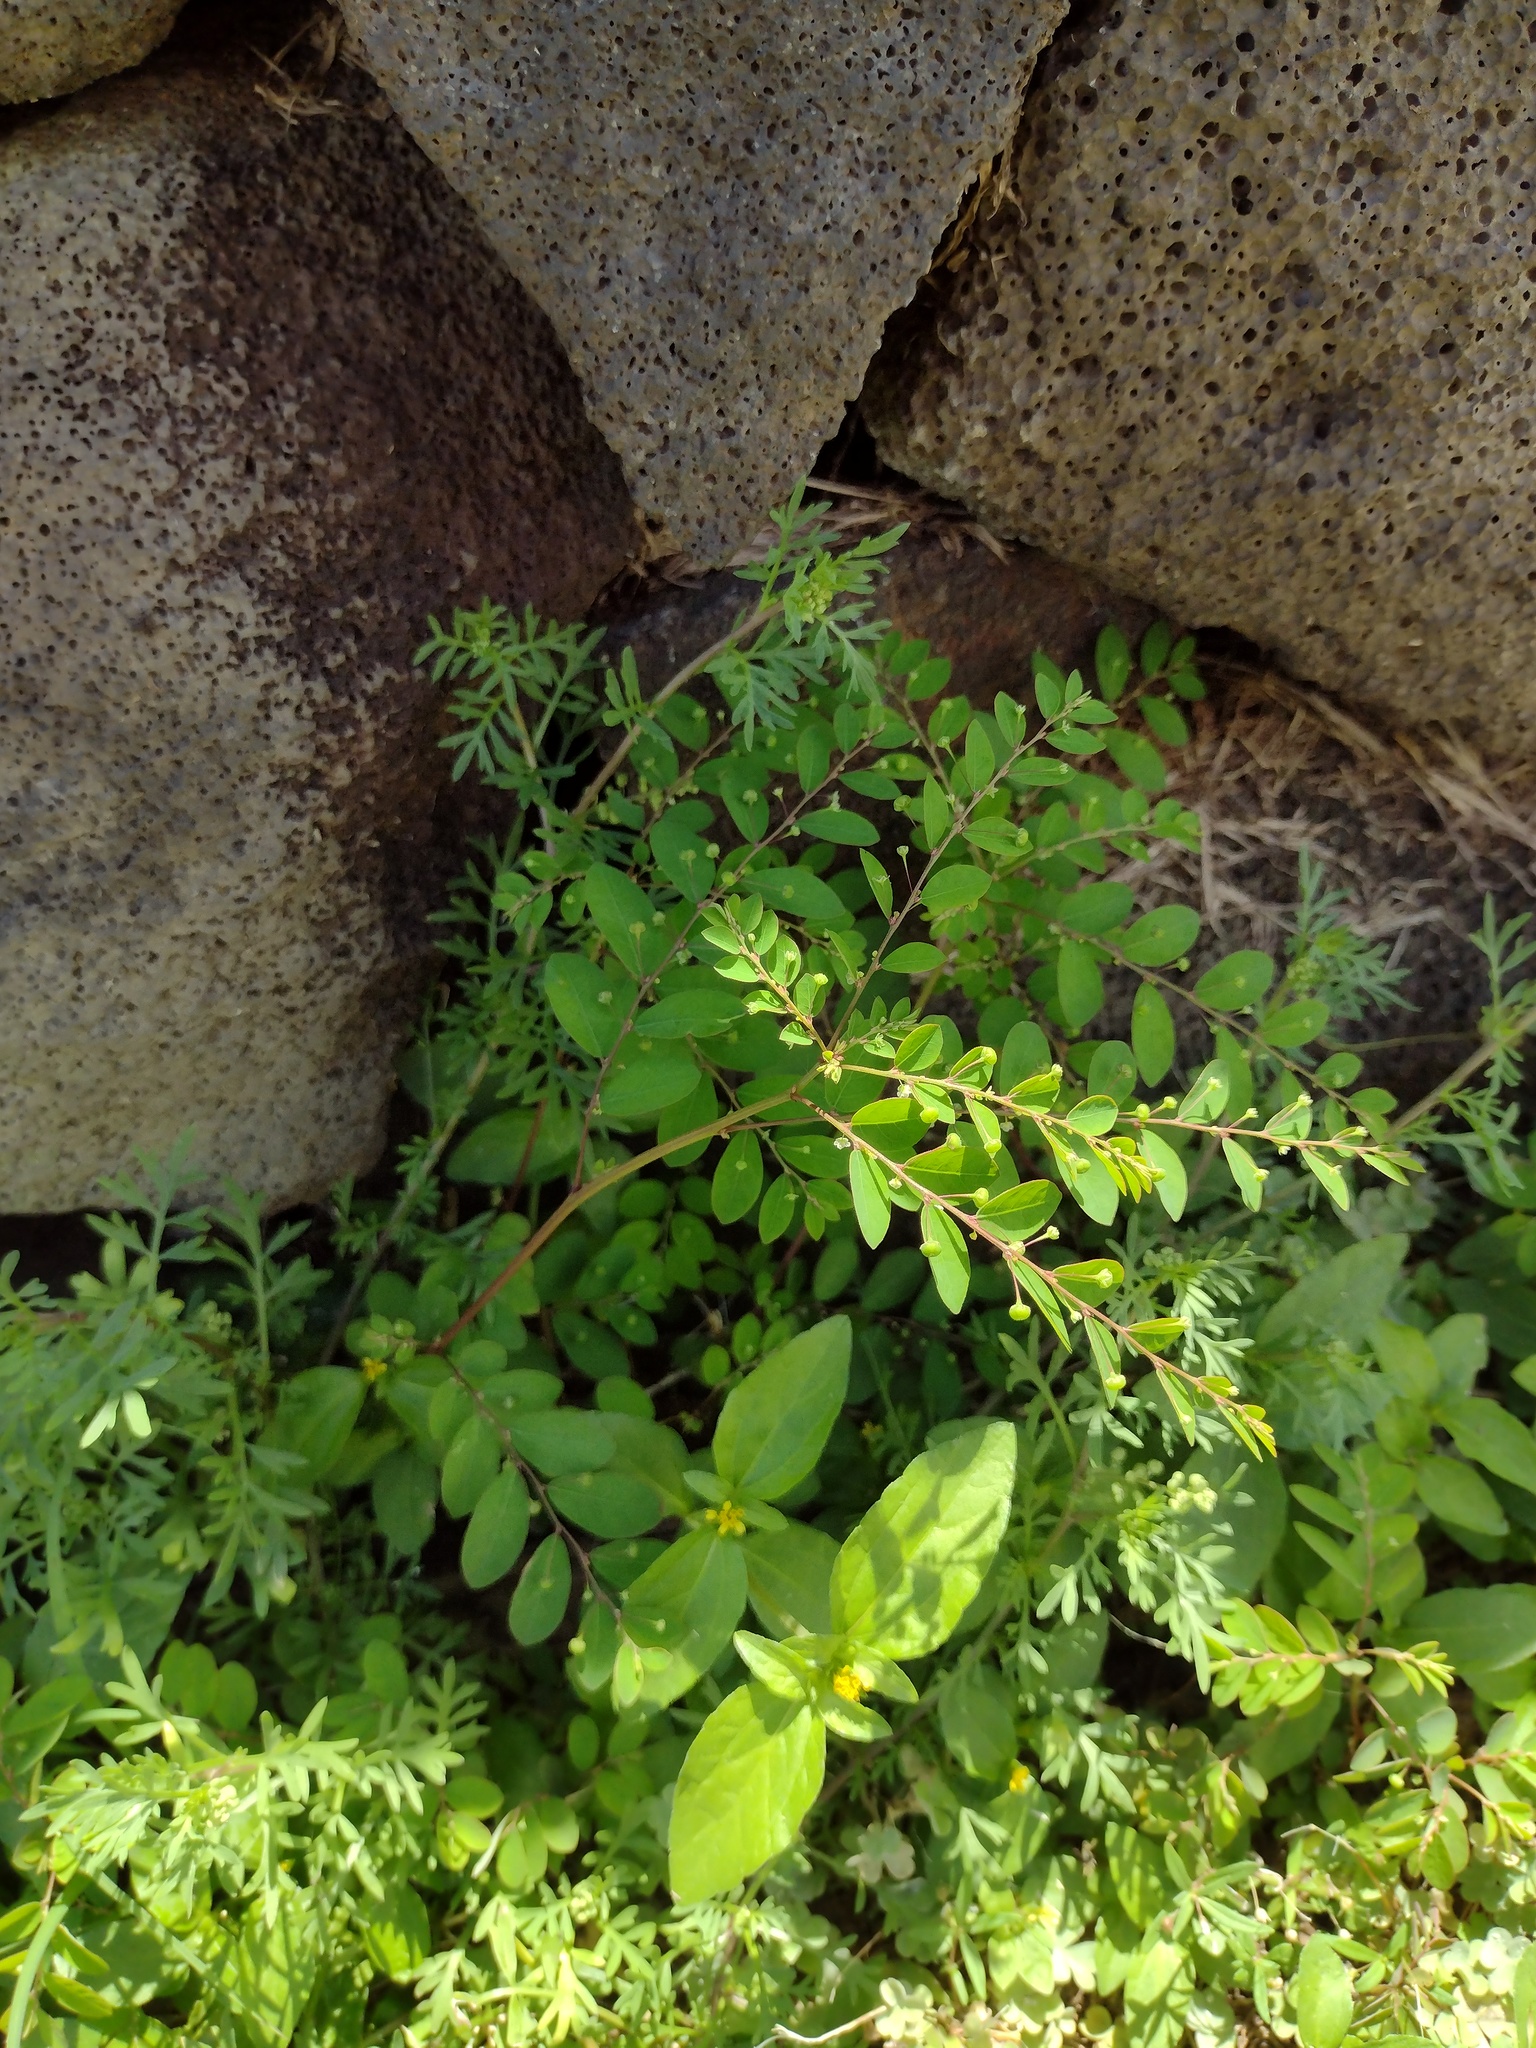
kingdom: Plantae
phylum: Tracheophyta
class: Magnoliopsida
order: Malpighiales
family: Phyllanthaceae
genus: Phyllanthus
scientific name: Phyllanthus tenellus
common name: Mascarene island leaf-flower
